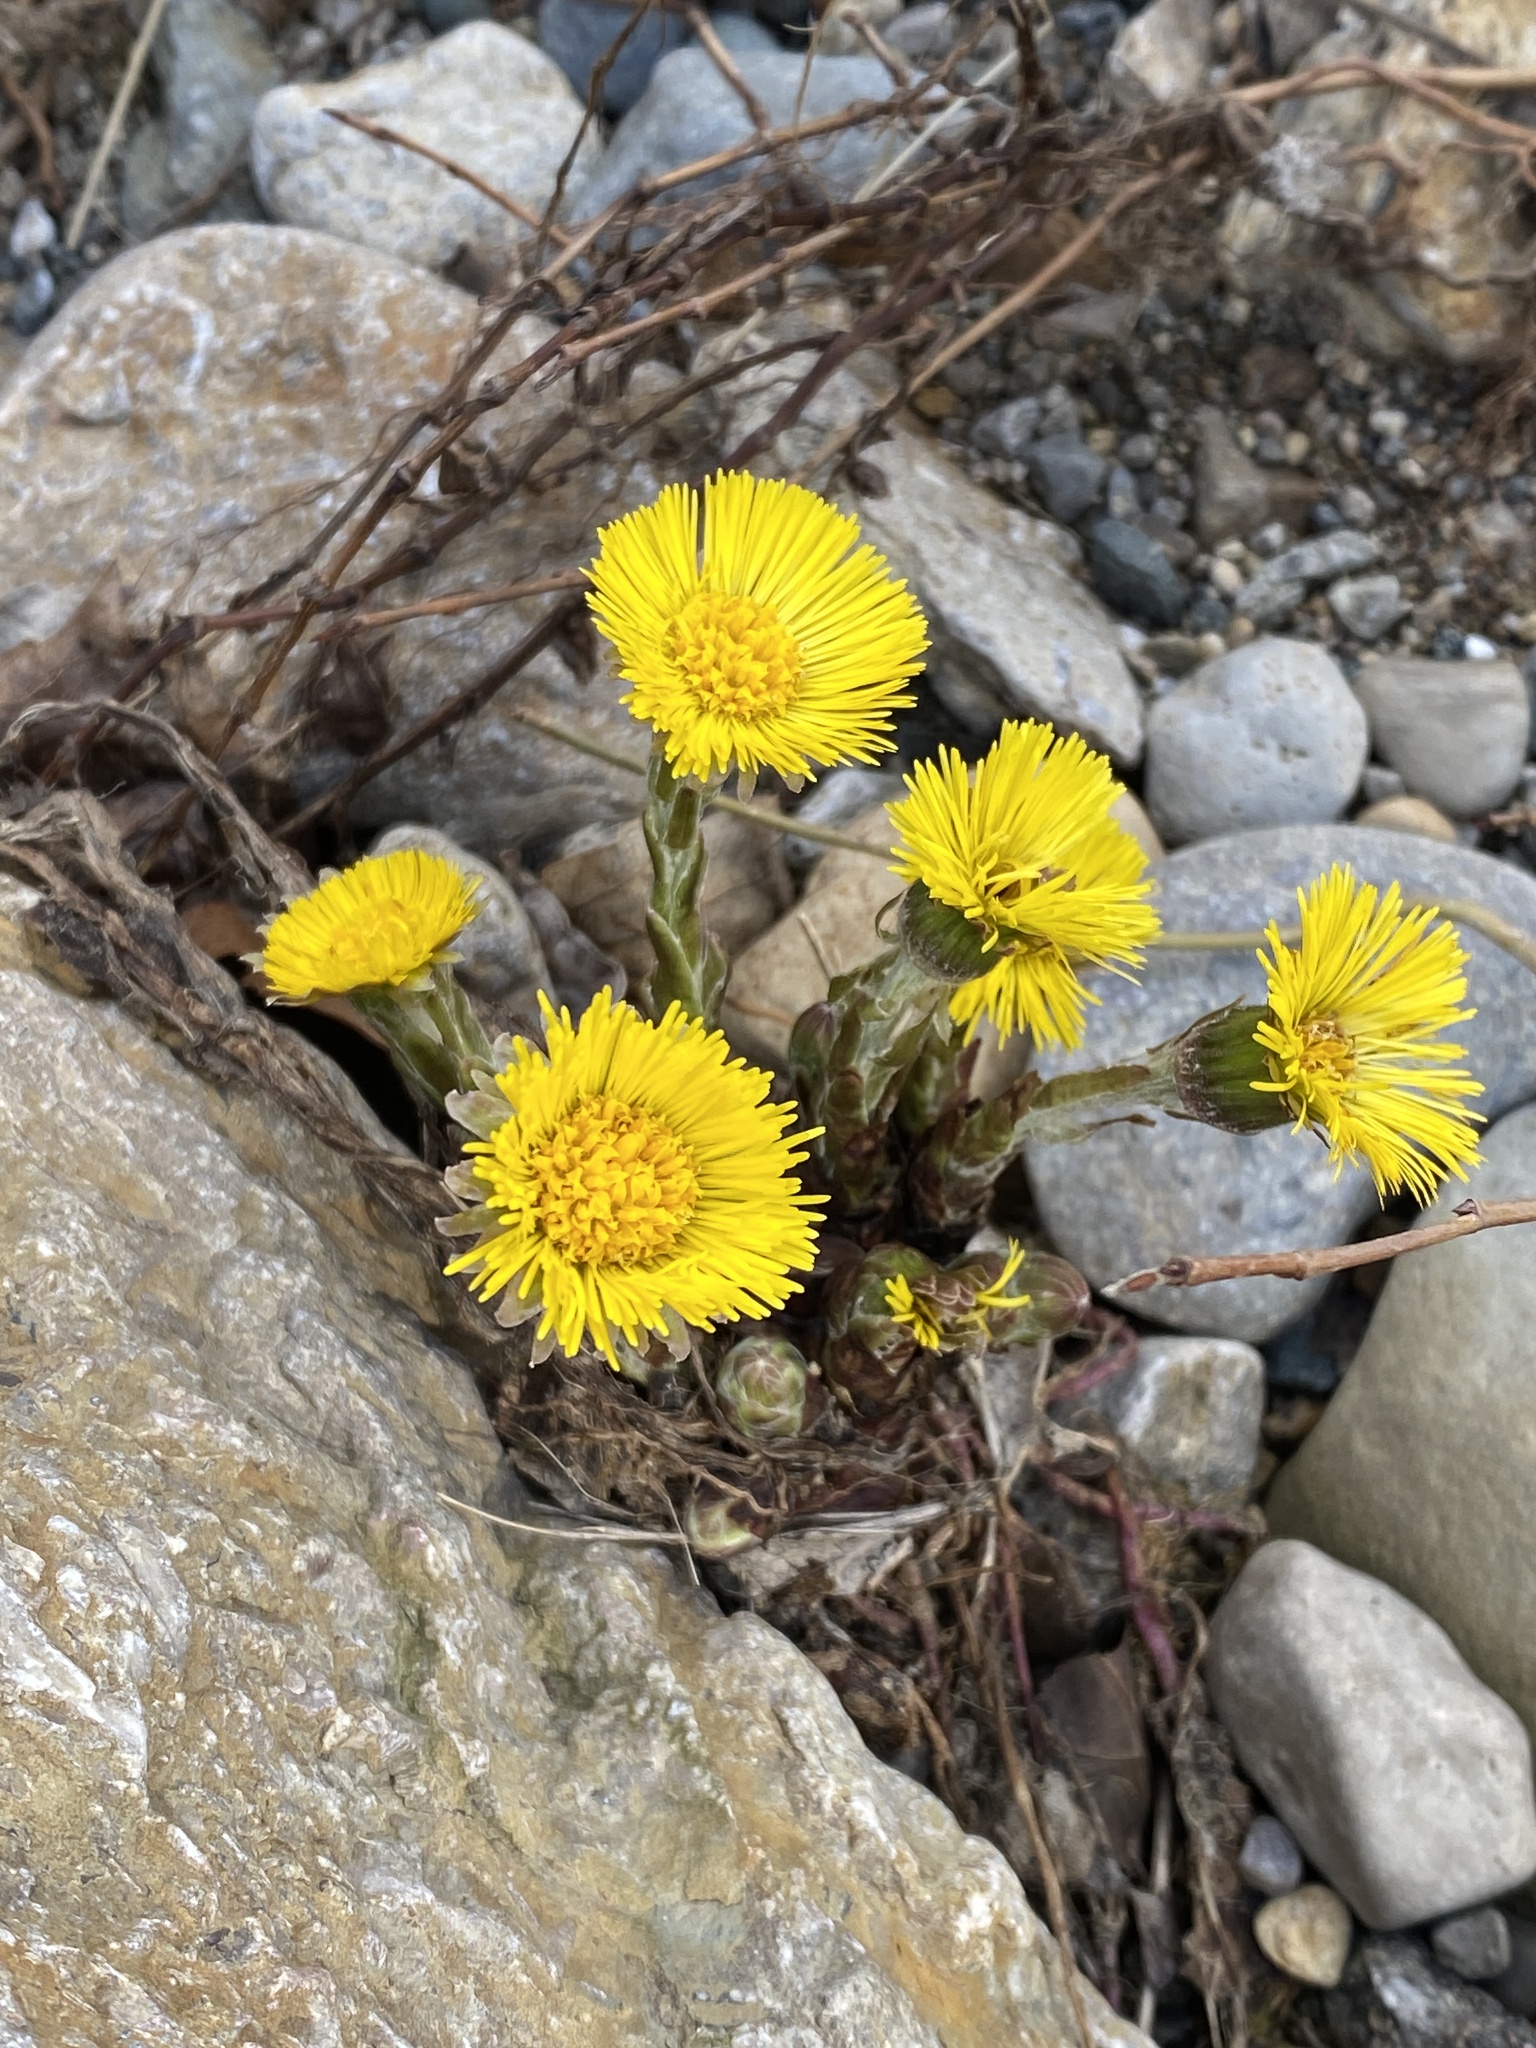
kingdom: Plantae
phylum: Tracheophyta
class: Magnoliopsida
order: Asterales
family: Asteraceae
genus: Tussilago
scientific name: Tussilago farfara
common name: Coltsfoot
